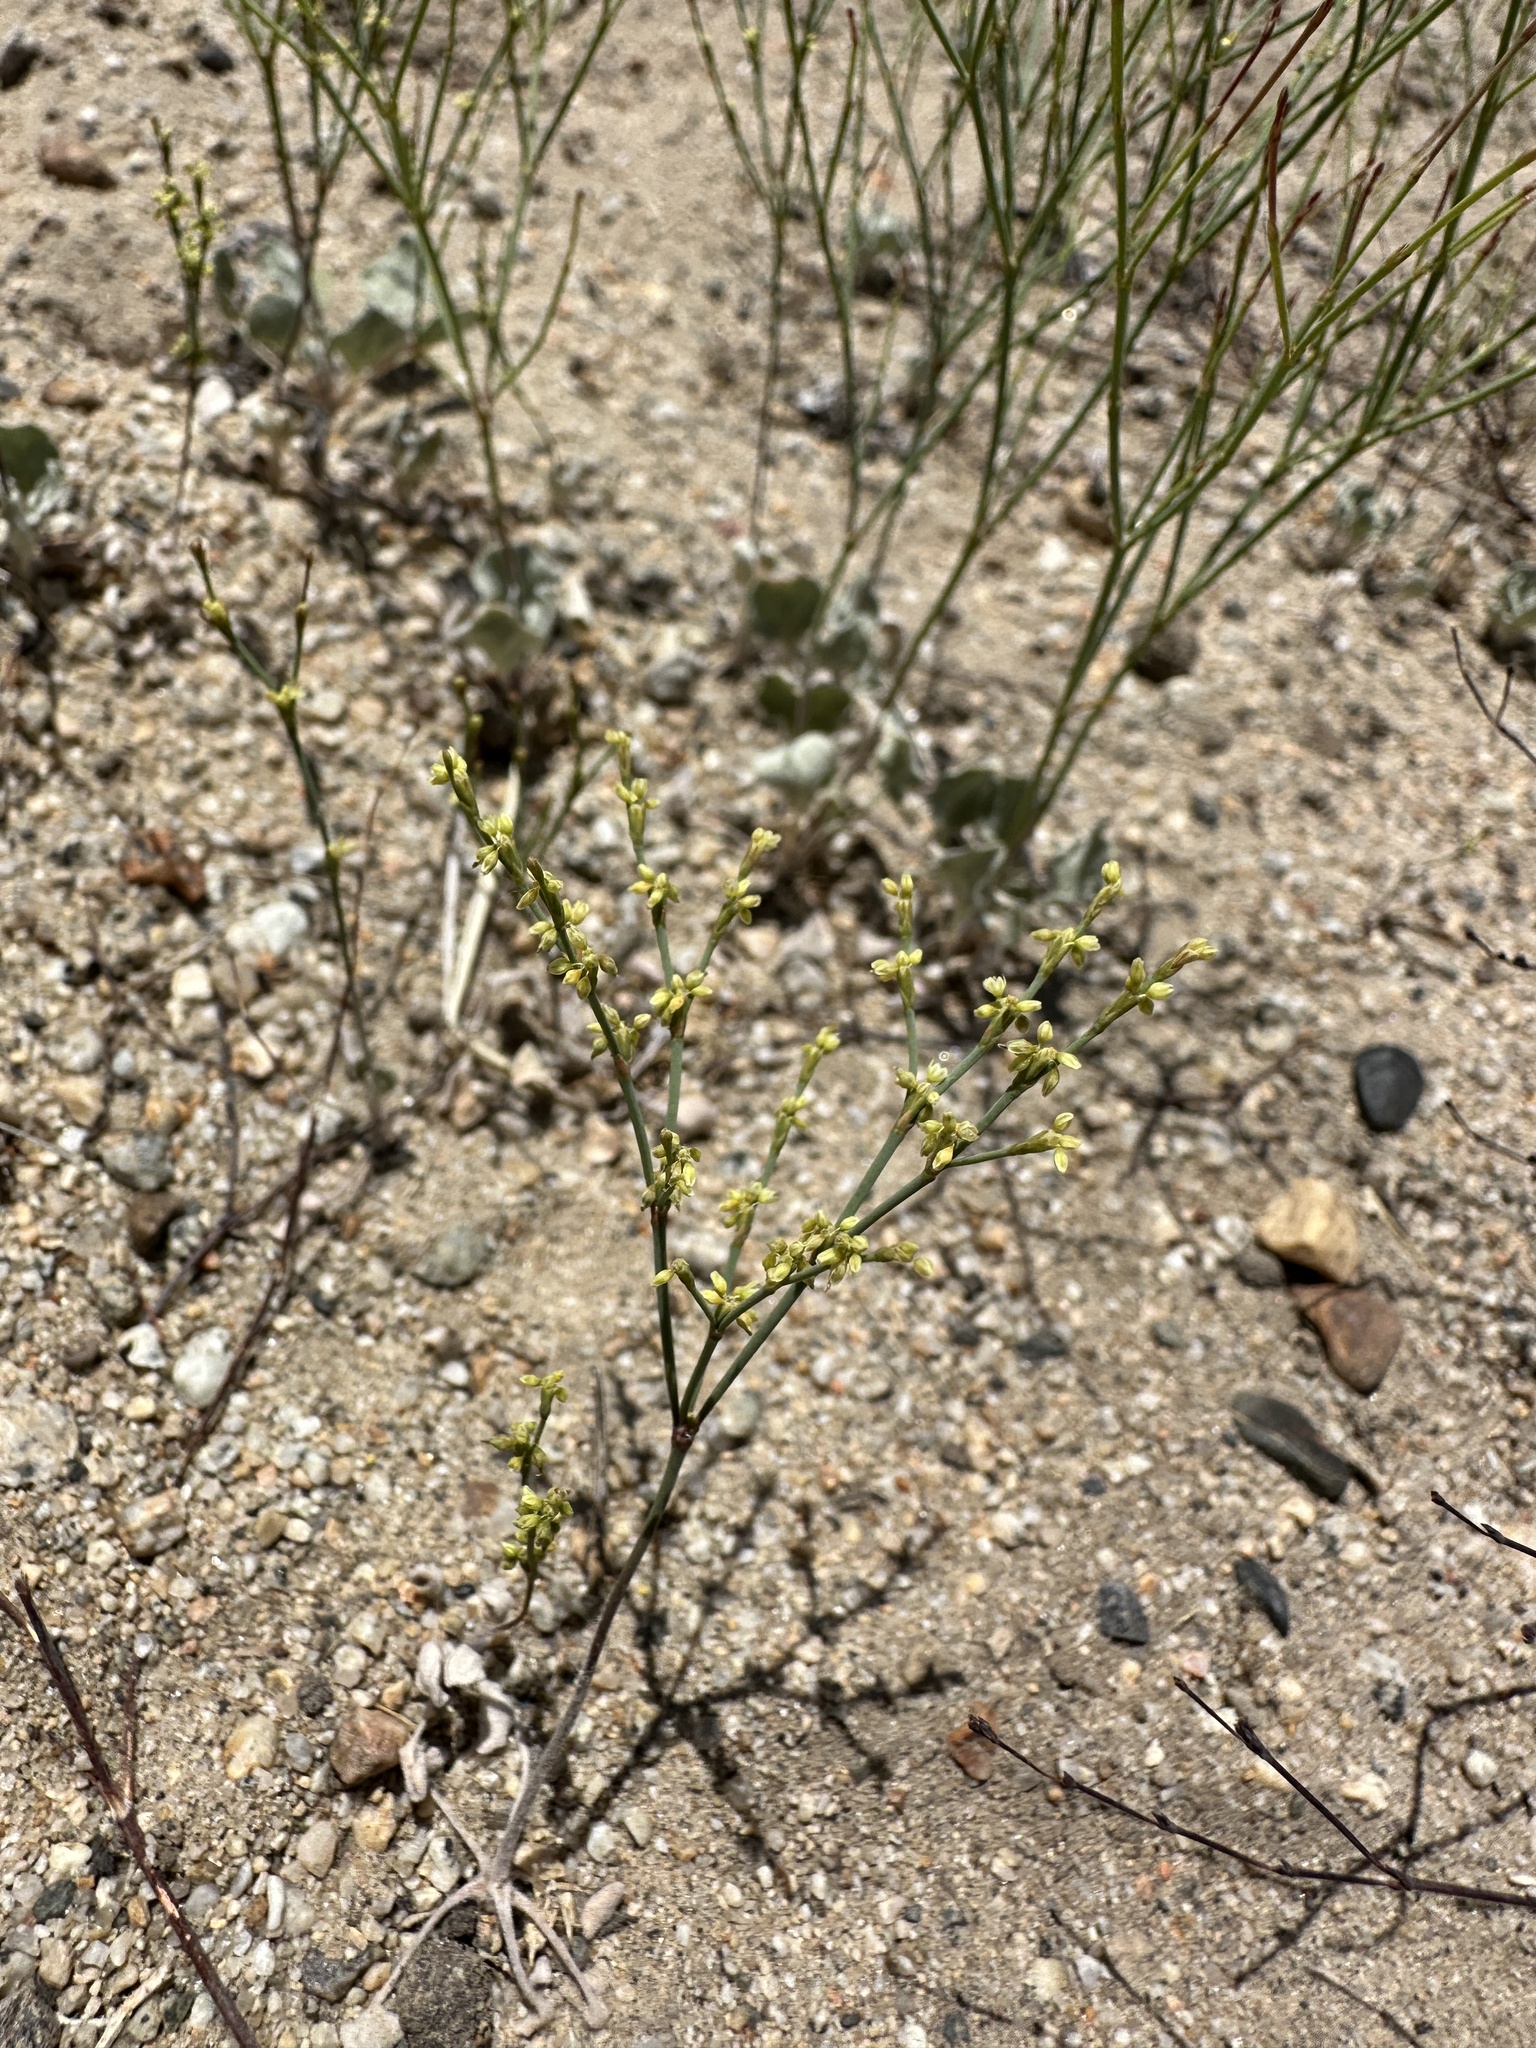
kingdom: Plantae
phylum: Tracheophyta
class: Magnoliopsida
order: Caryophyllales
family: Polygonaceae
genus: Eriogonum
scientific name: Eriogonum brachyanthum
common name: Short-flower wild buckwheat
